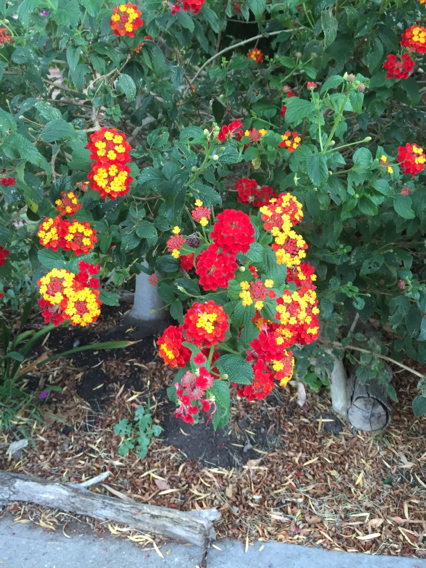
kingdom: Plantae
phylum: Tracheophyta
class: Magnoliopsida
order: Lamiales
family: Verbenaceae
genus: Lantana
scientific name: Lantana camara
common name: Lantana
